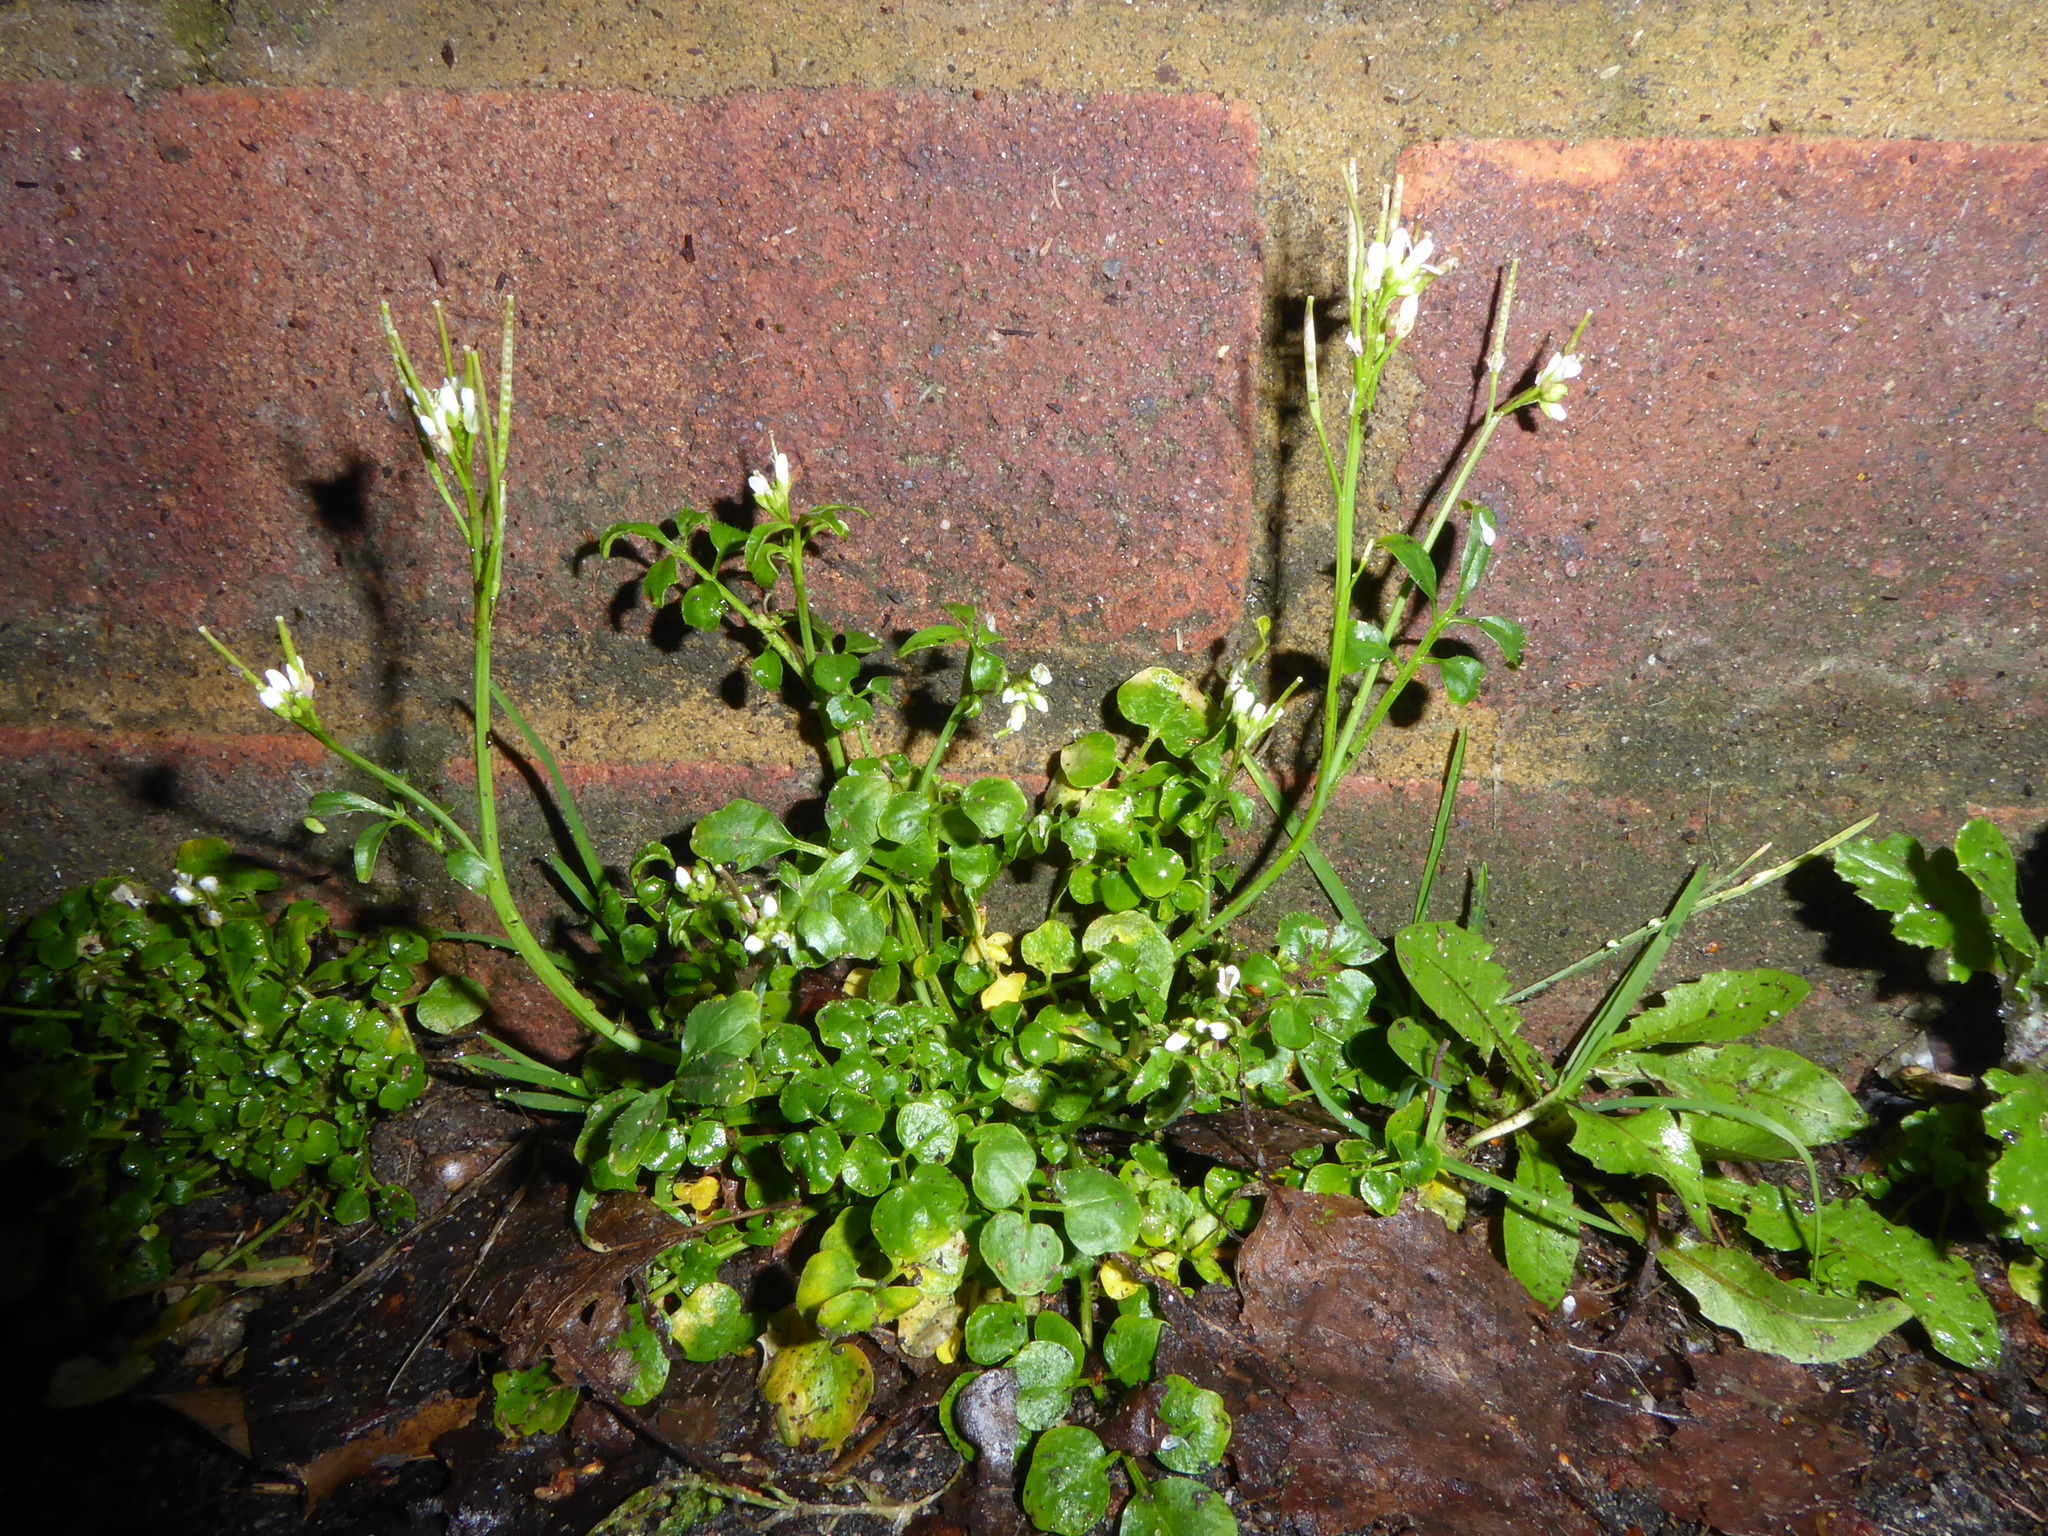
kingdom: Plantae
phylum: Tracheophyta
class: Magnoliopsida
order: Brassicales
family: Brassicaceae
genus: Cardamine
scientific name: Cardamine hirsuta
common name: Hairy bittercress
